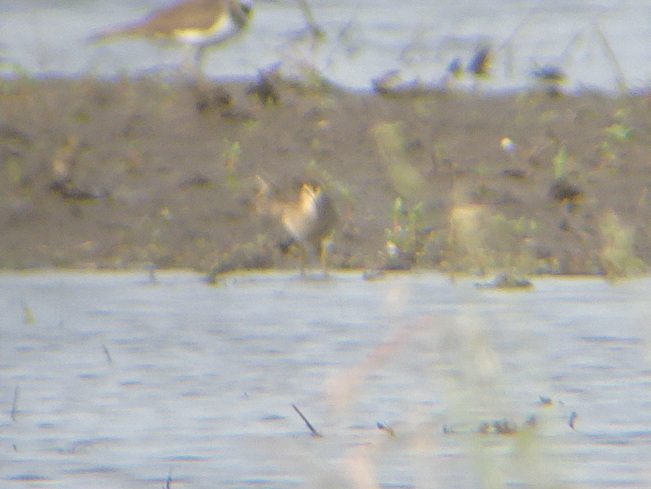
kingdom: Animalia
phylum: Chordata
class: Aves
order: Charadriiformes
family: Scolopacidae
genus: Calidris
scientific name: Calidris melanotos
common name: Pectoral sandpiper
